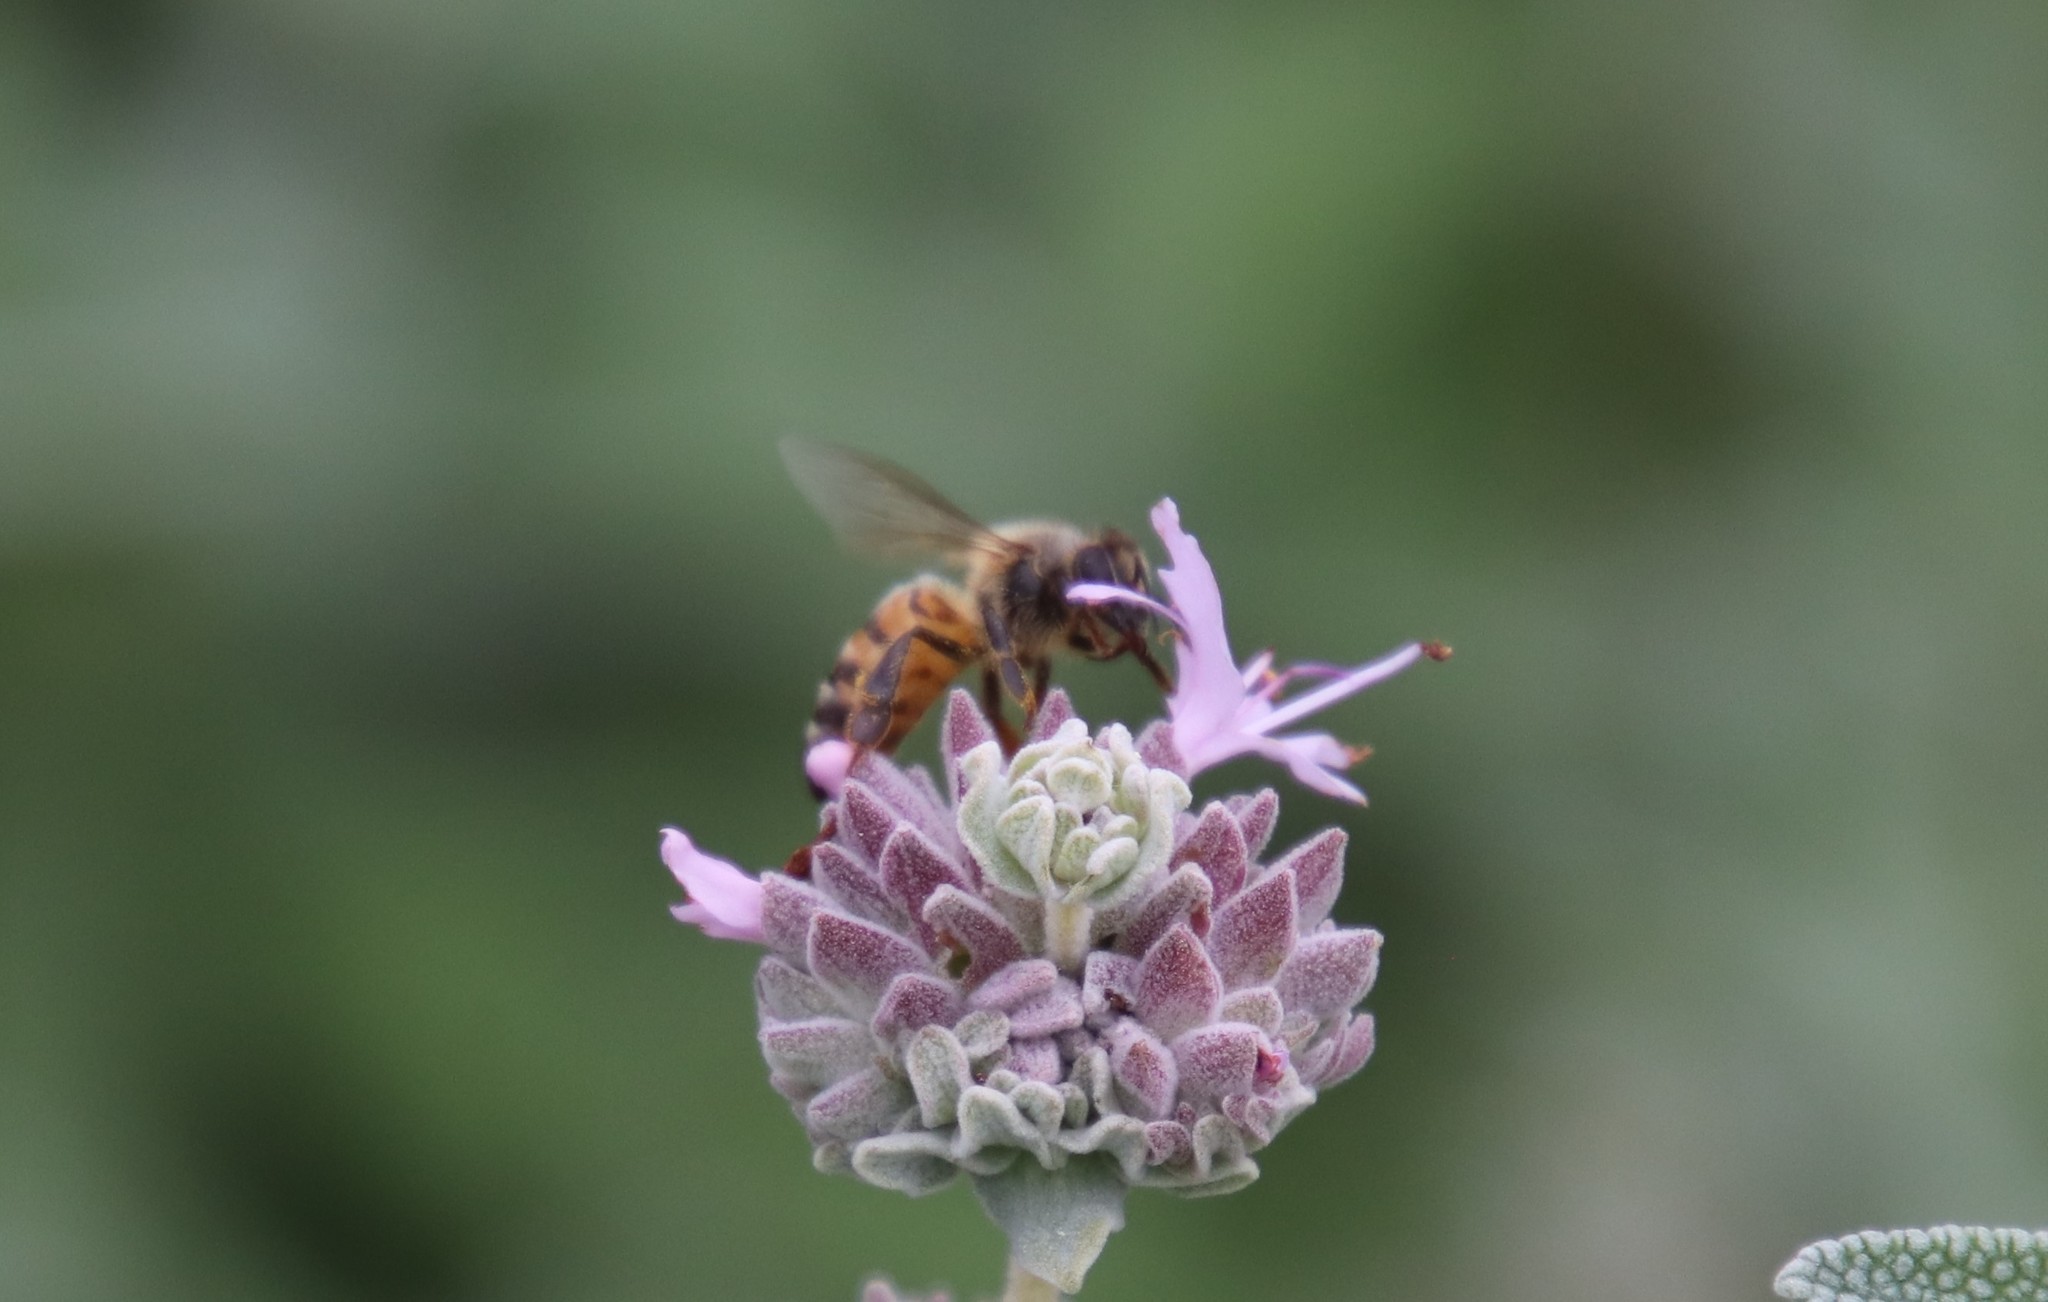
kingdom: Animalia
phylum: Arthropoda
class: Insecta
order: Hymenoptera
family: Apidae
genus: Apis
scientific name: Apis mellifera
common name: Honey bee
